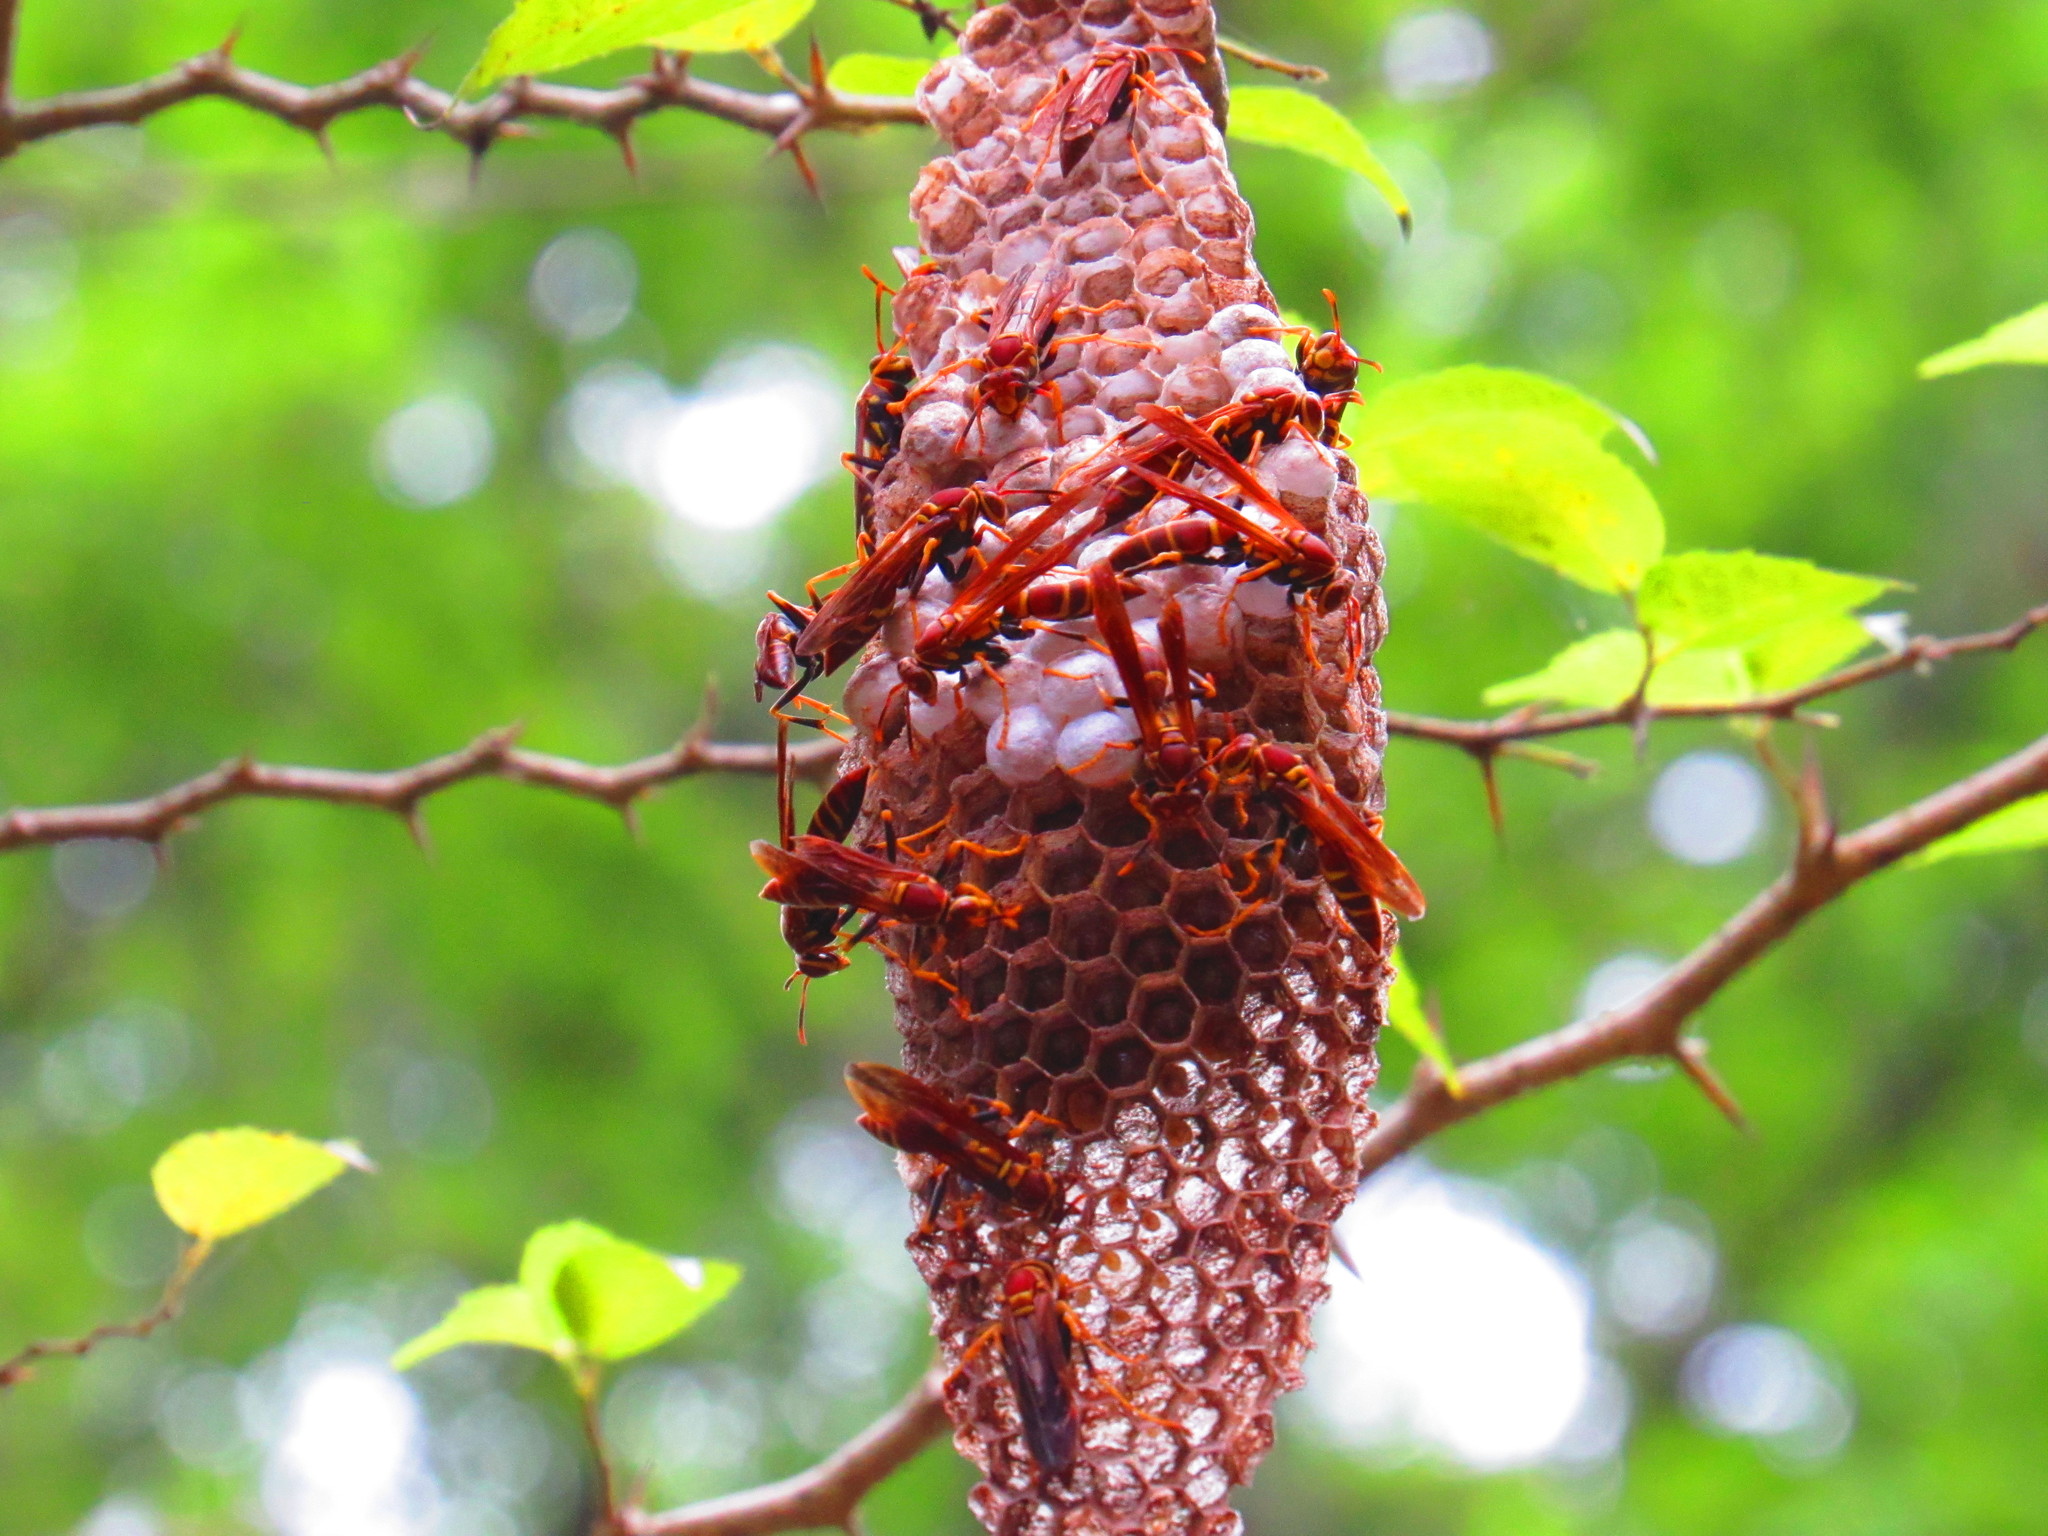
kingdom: Animalia
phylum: Arthropoda
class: Insecta
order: Hymenoptera
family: Eumenidae
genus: Polistes
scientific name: Polistes instabilis
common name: Unstable paper wasp
